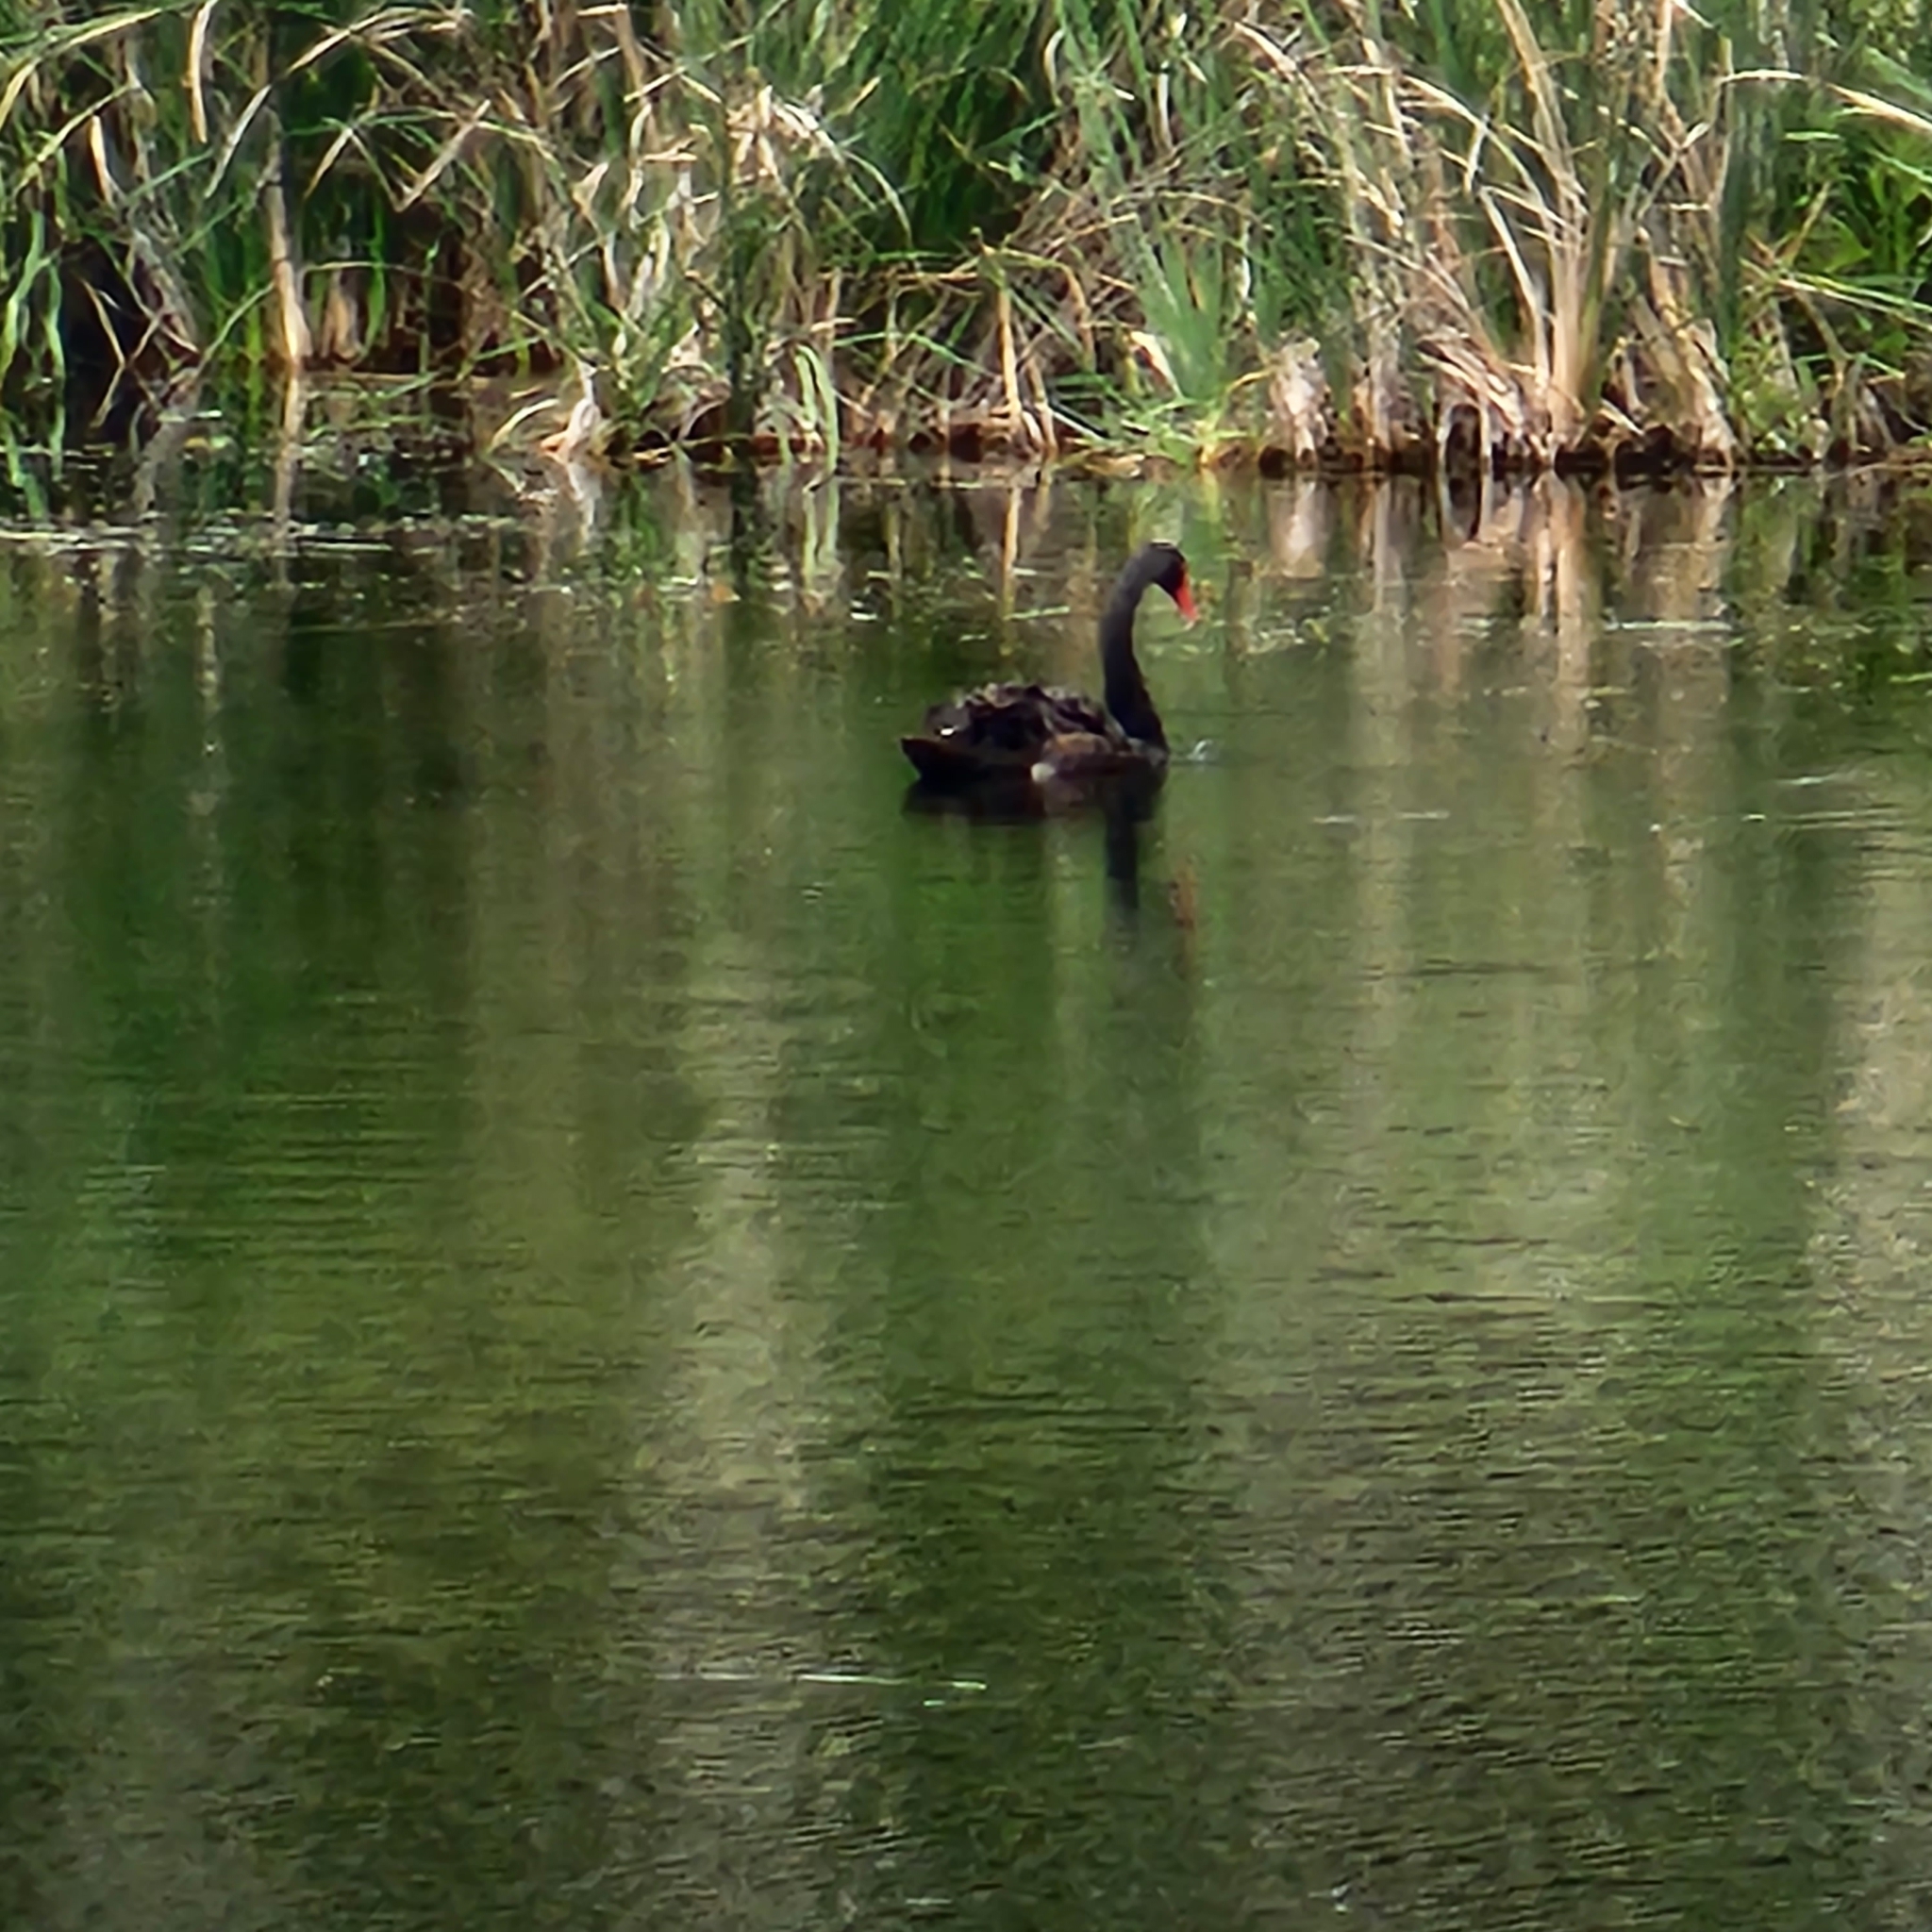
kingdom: Animalia
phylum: Chordata
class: Aves
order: Anseriformes
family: Anatidae
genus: Cygnus
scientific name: Cygnus atratus
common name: Black swan
